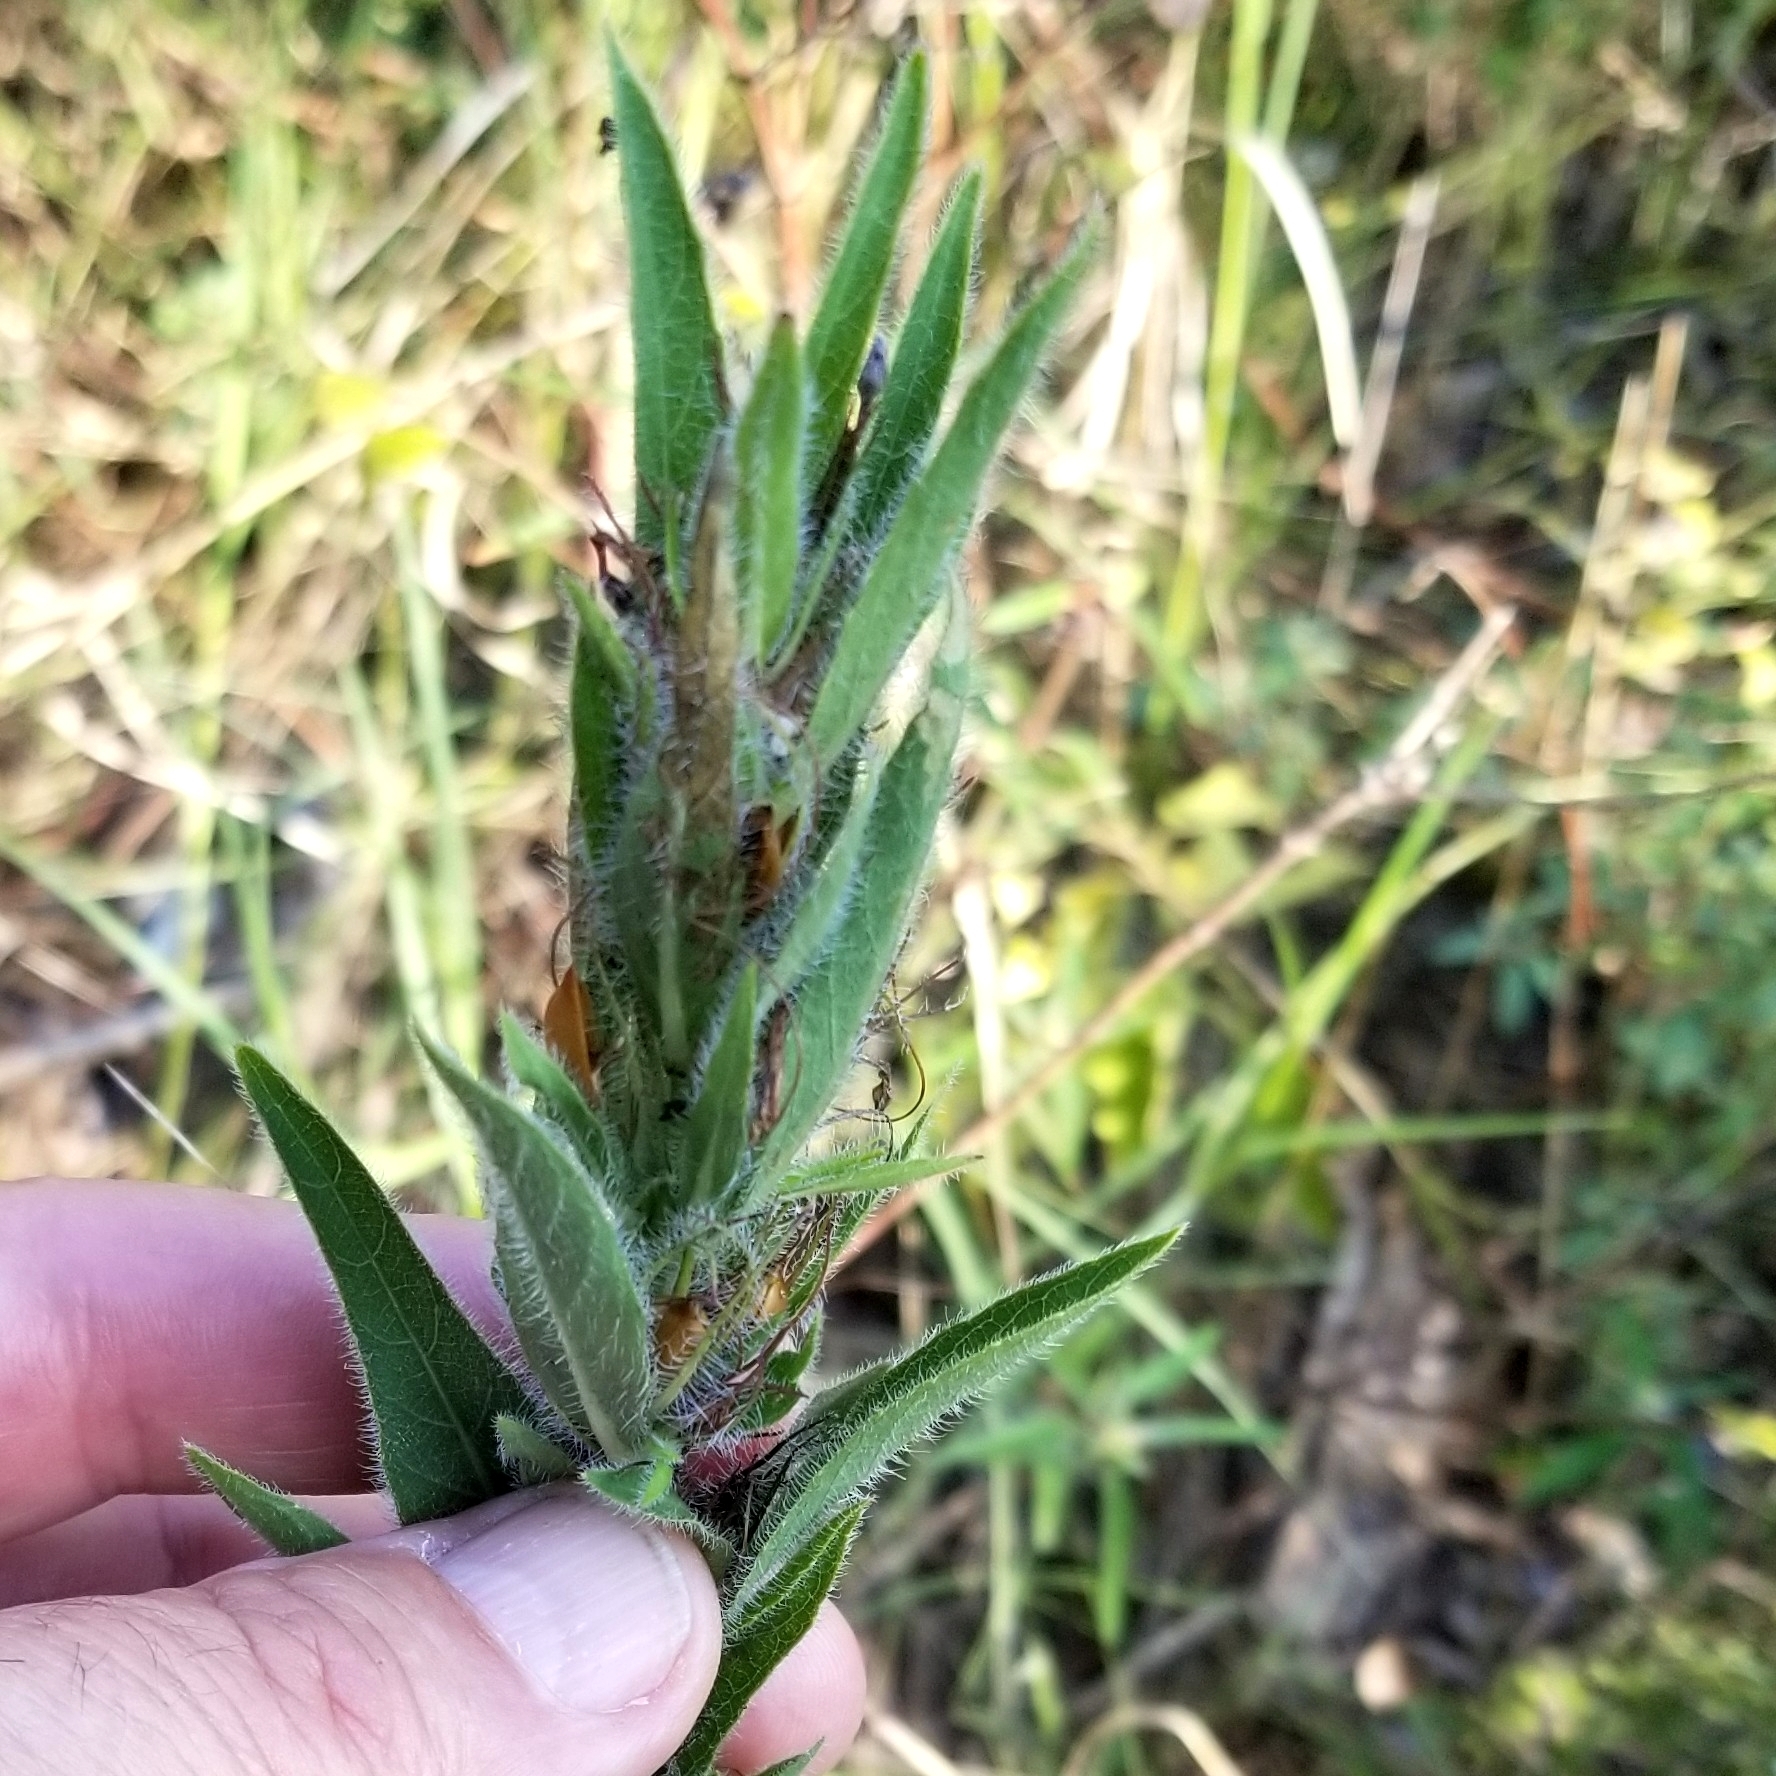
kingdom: Plantae
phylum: Tracheophyta
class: Magnoliopsida
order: Lamiales
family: Acanthaceae
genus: Ruellia
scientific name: Ruellia humilis
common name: Fringe-leaf ruellia
